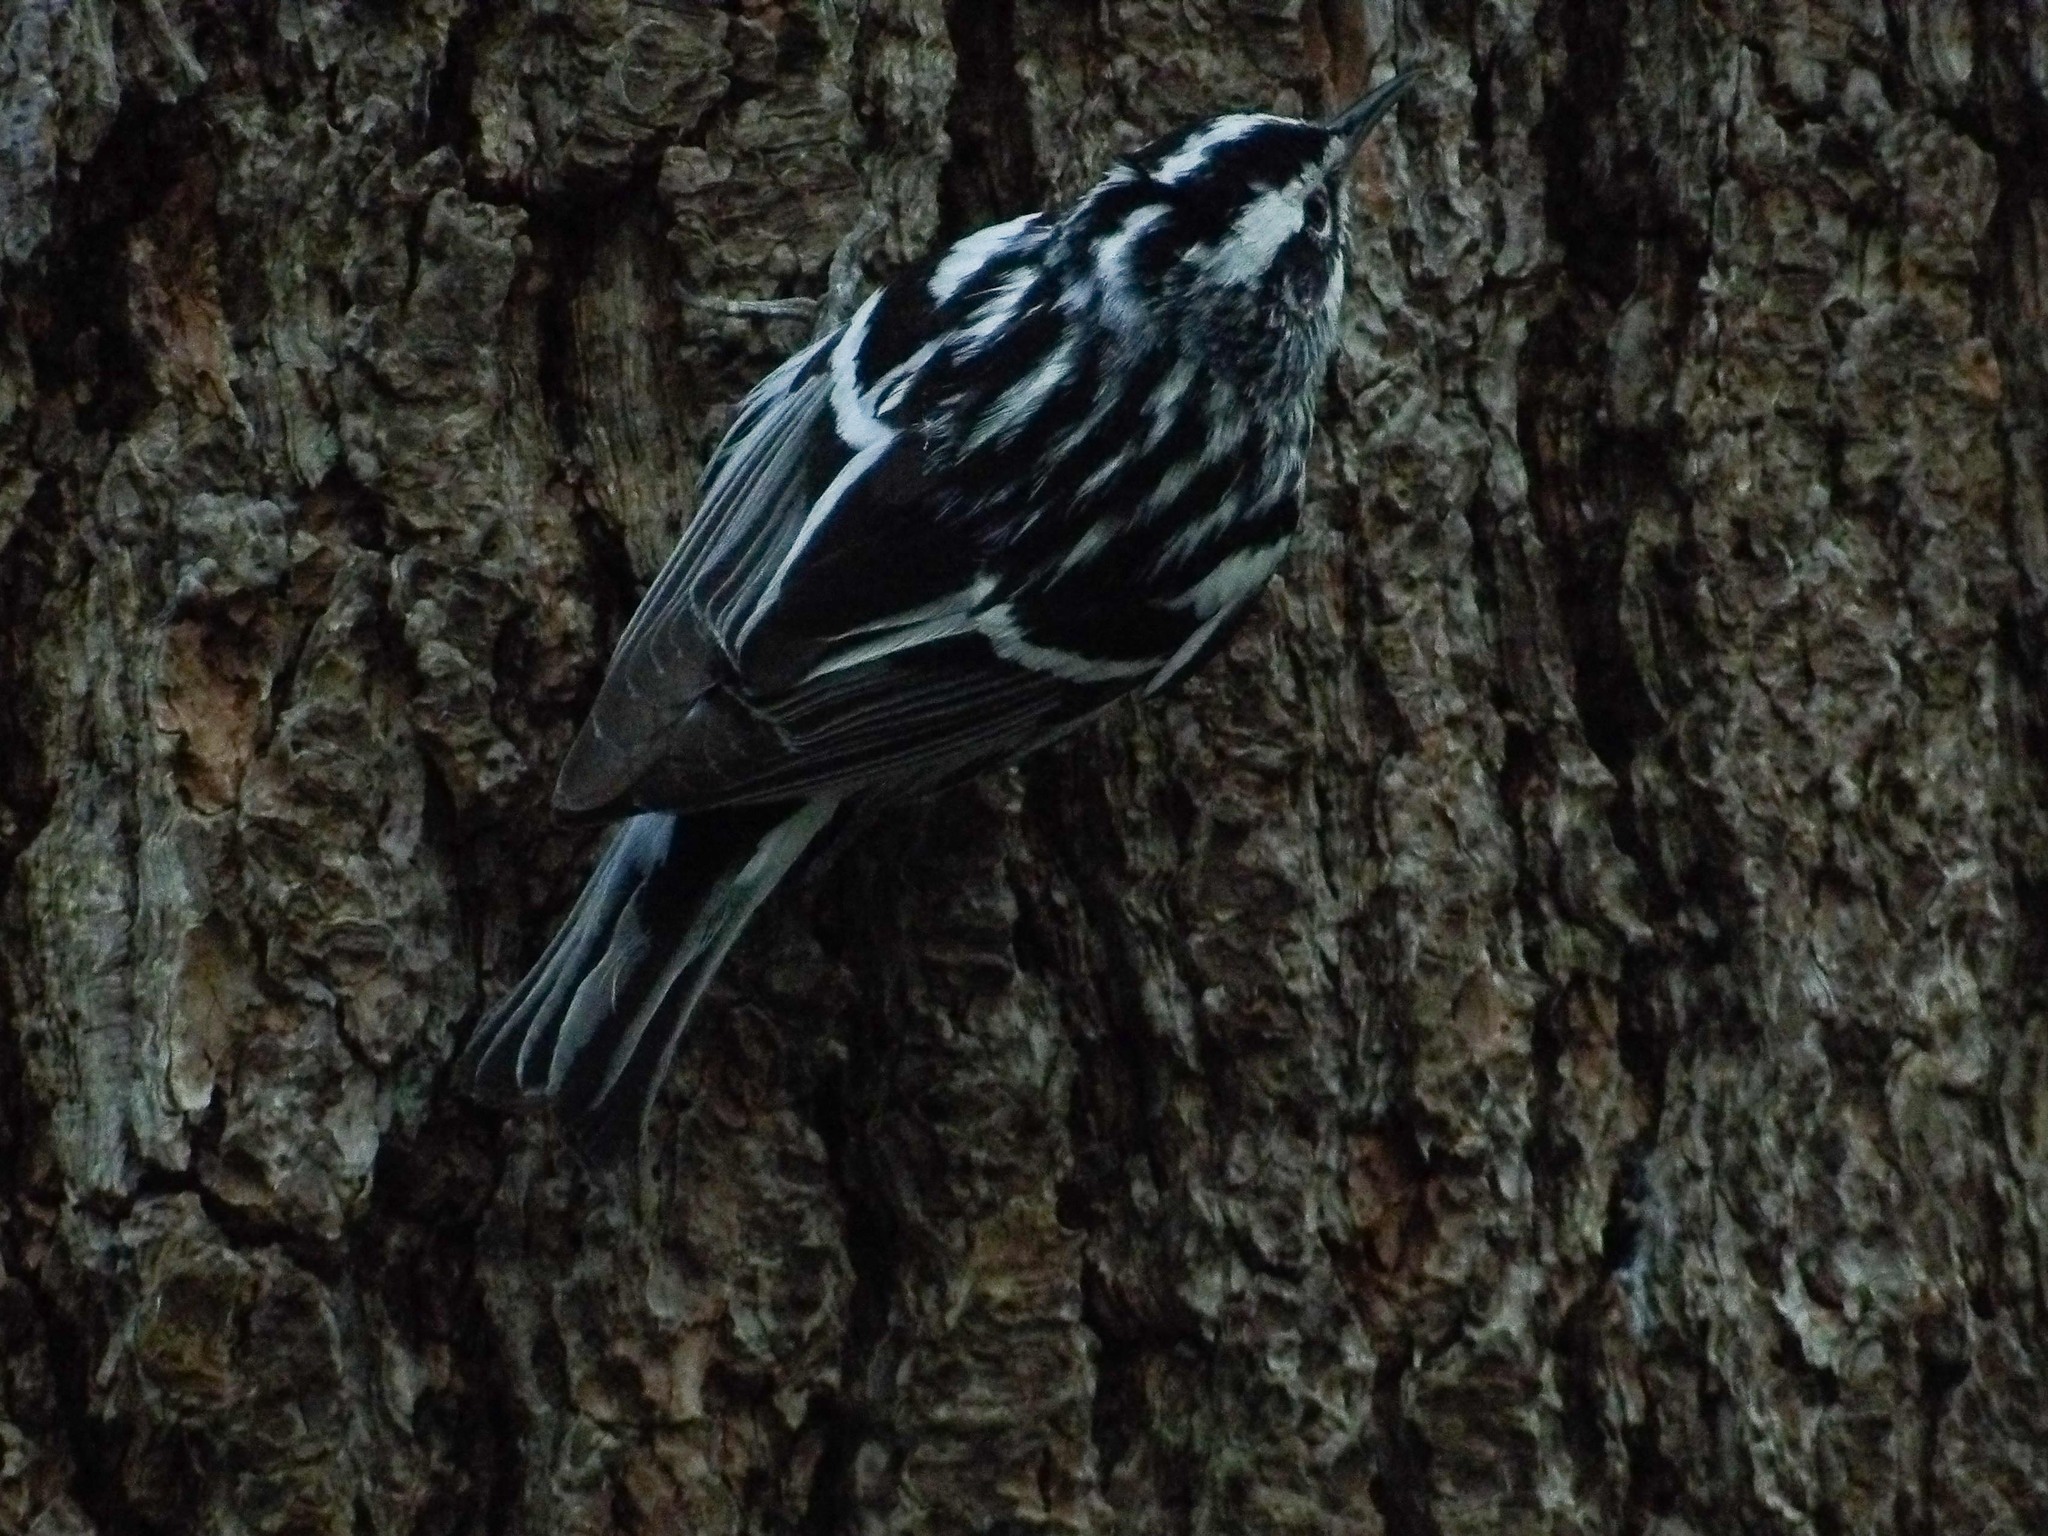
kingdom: Animalia
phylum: Chordata
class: Aves
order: Passeriformes
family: Parulidae
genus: Mniotilta
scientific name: Mniotilta varia
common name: Black-and-white warbler
